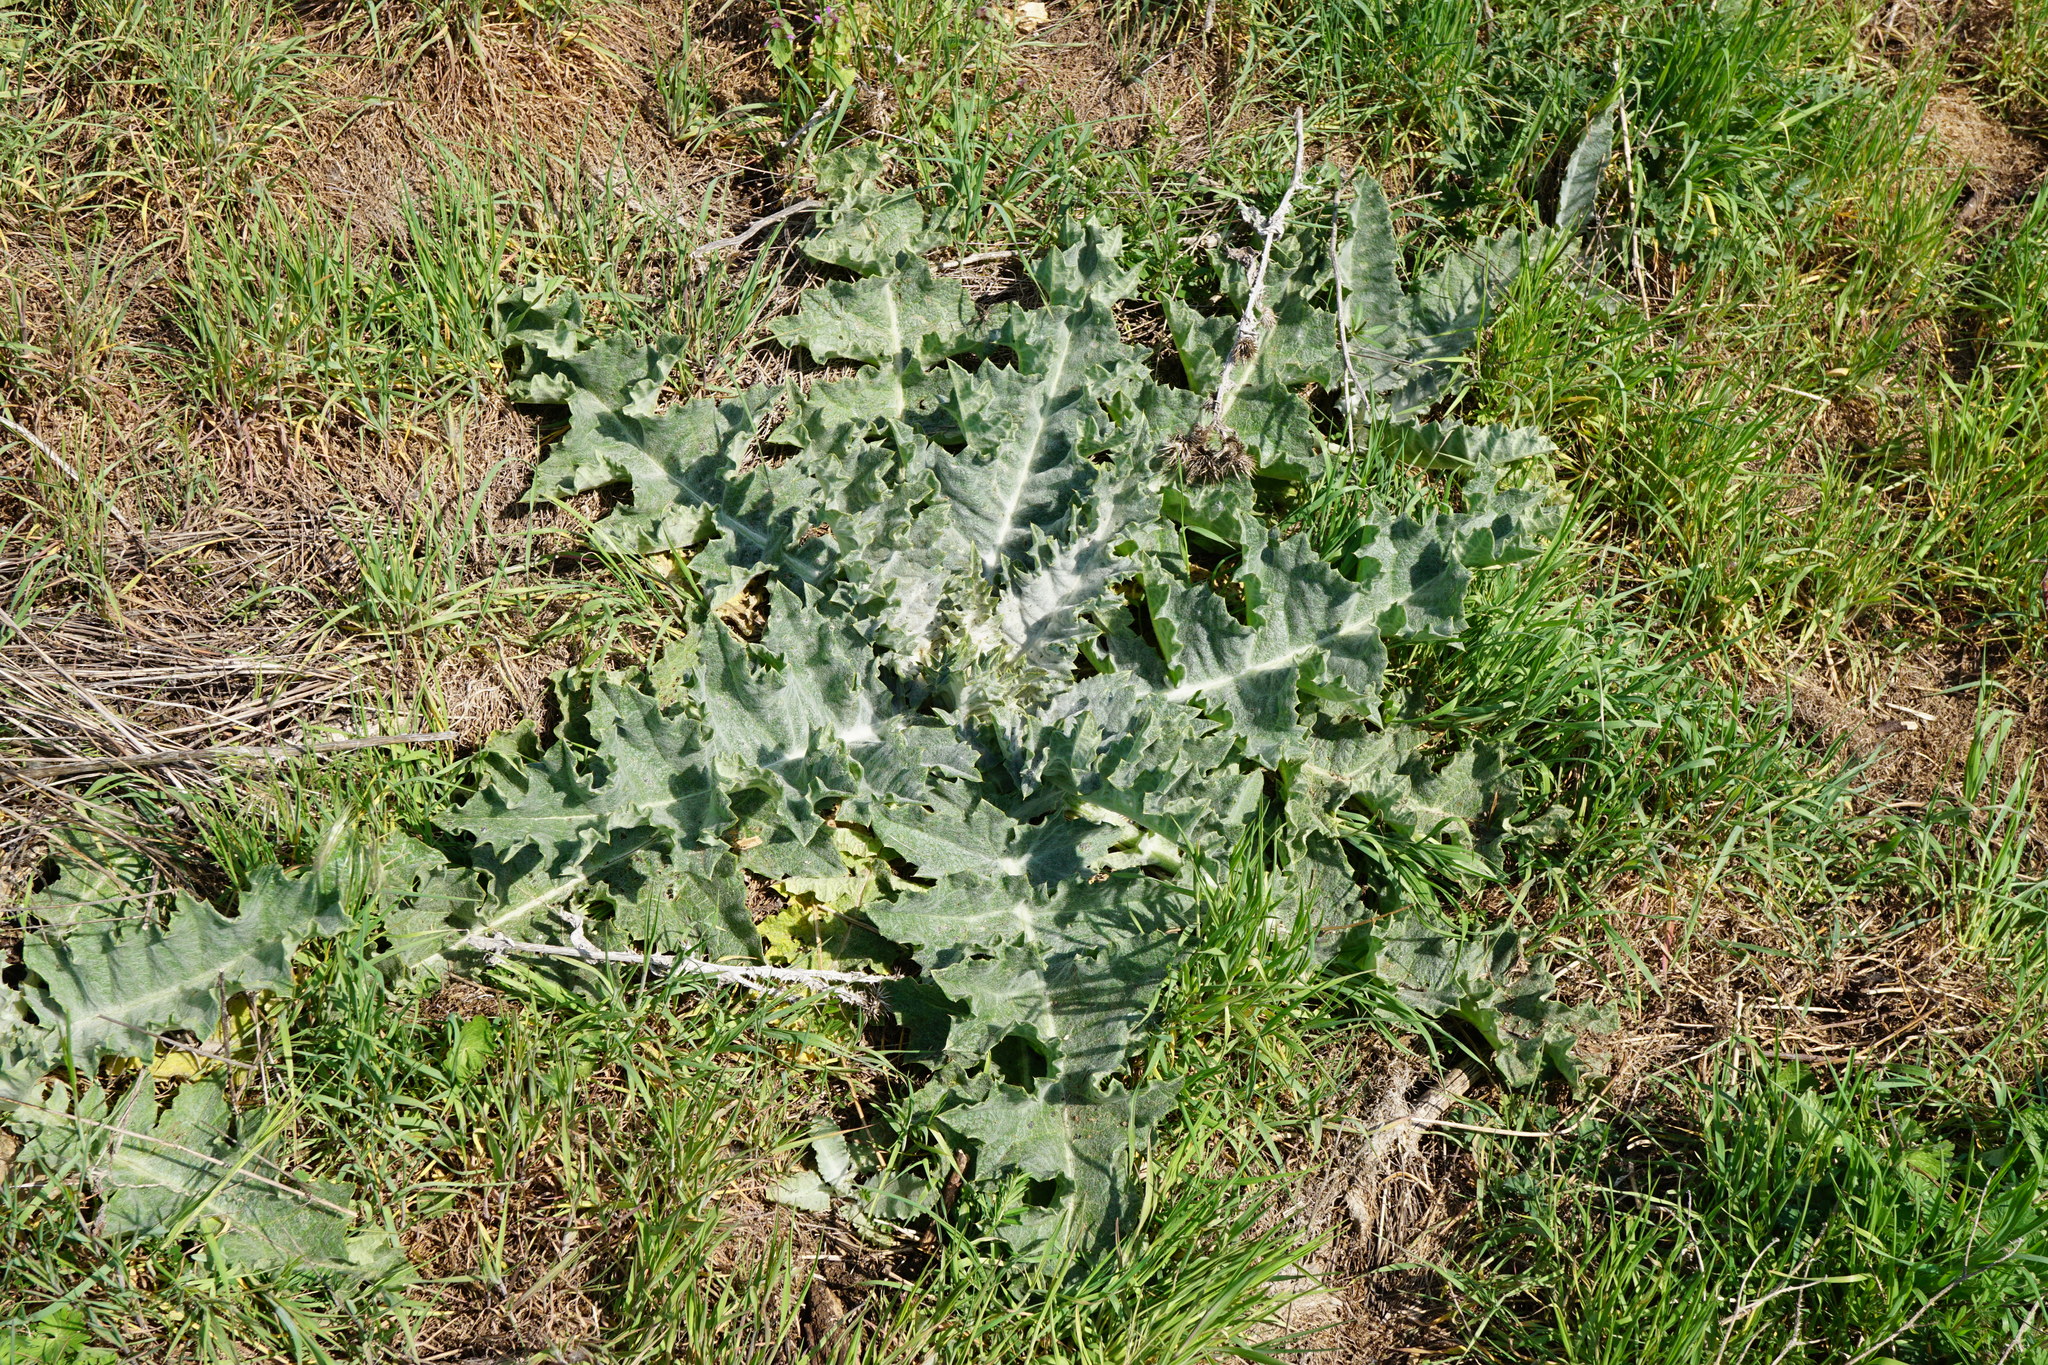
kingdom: Plantae
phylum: Tracheophyta
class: Magnoliopsida
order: Asterales
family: Asteraceae
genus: Onopordum
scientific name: Onopordum acanthium
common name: Scotch thistle
